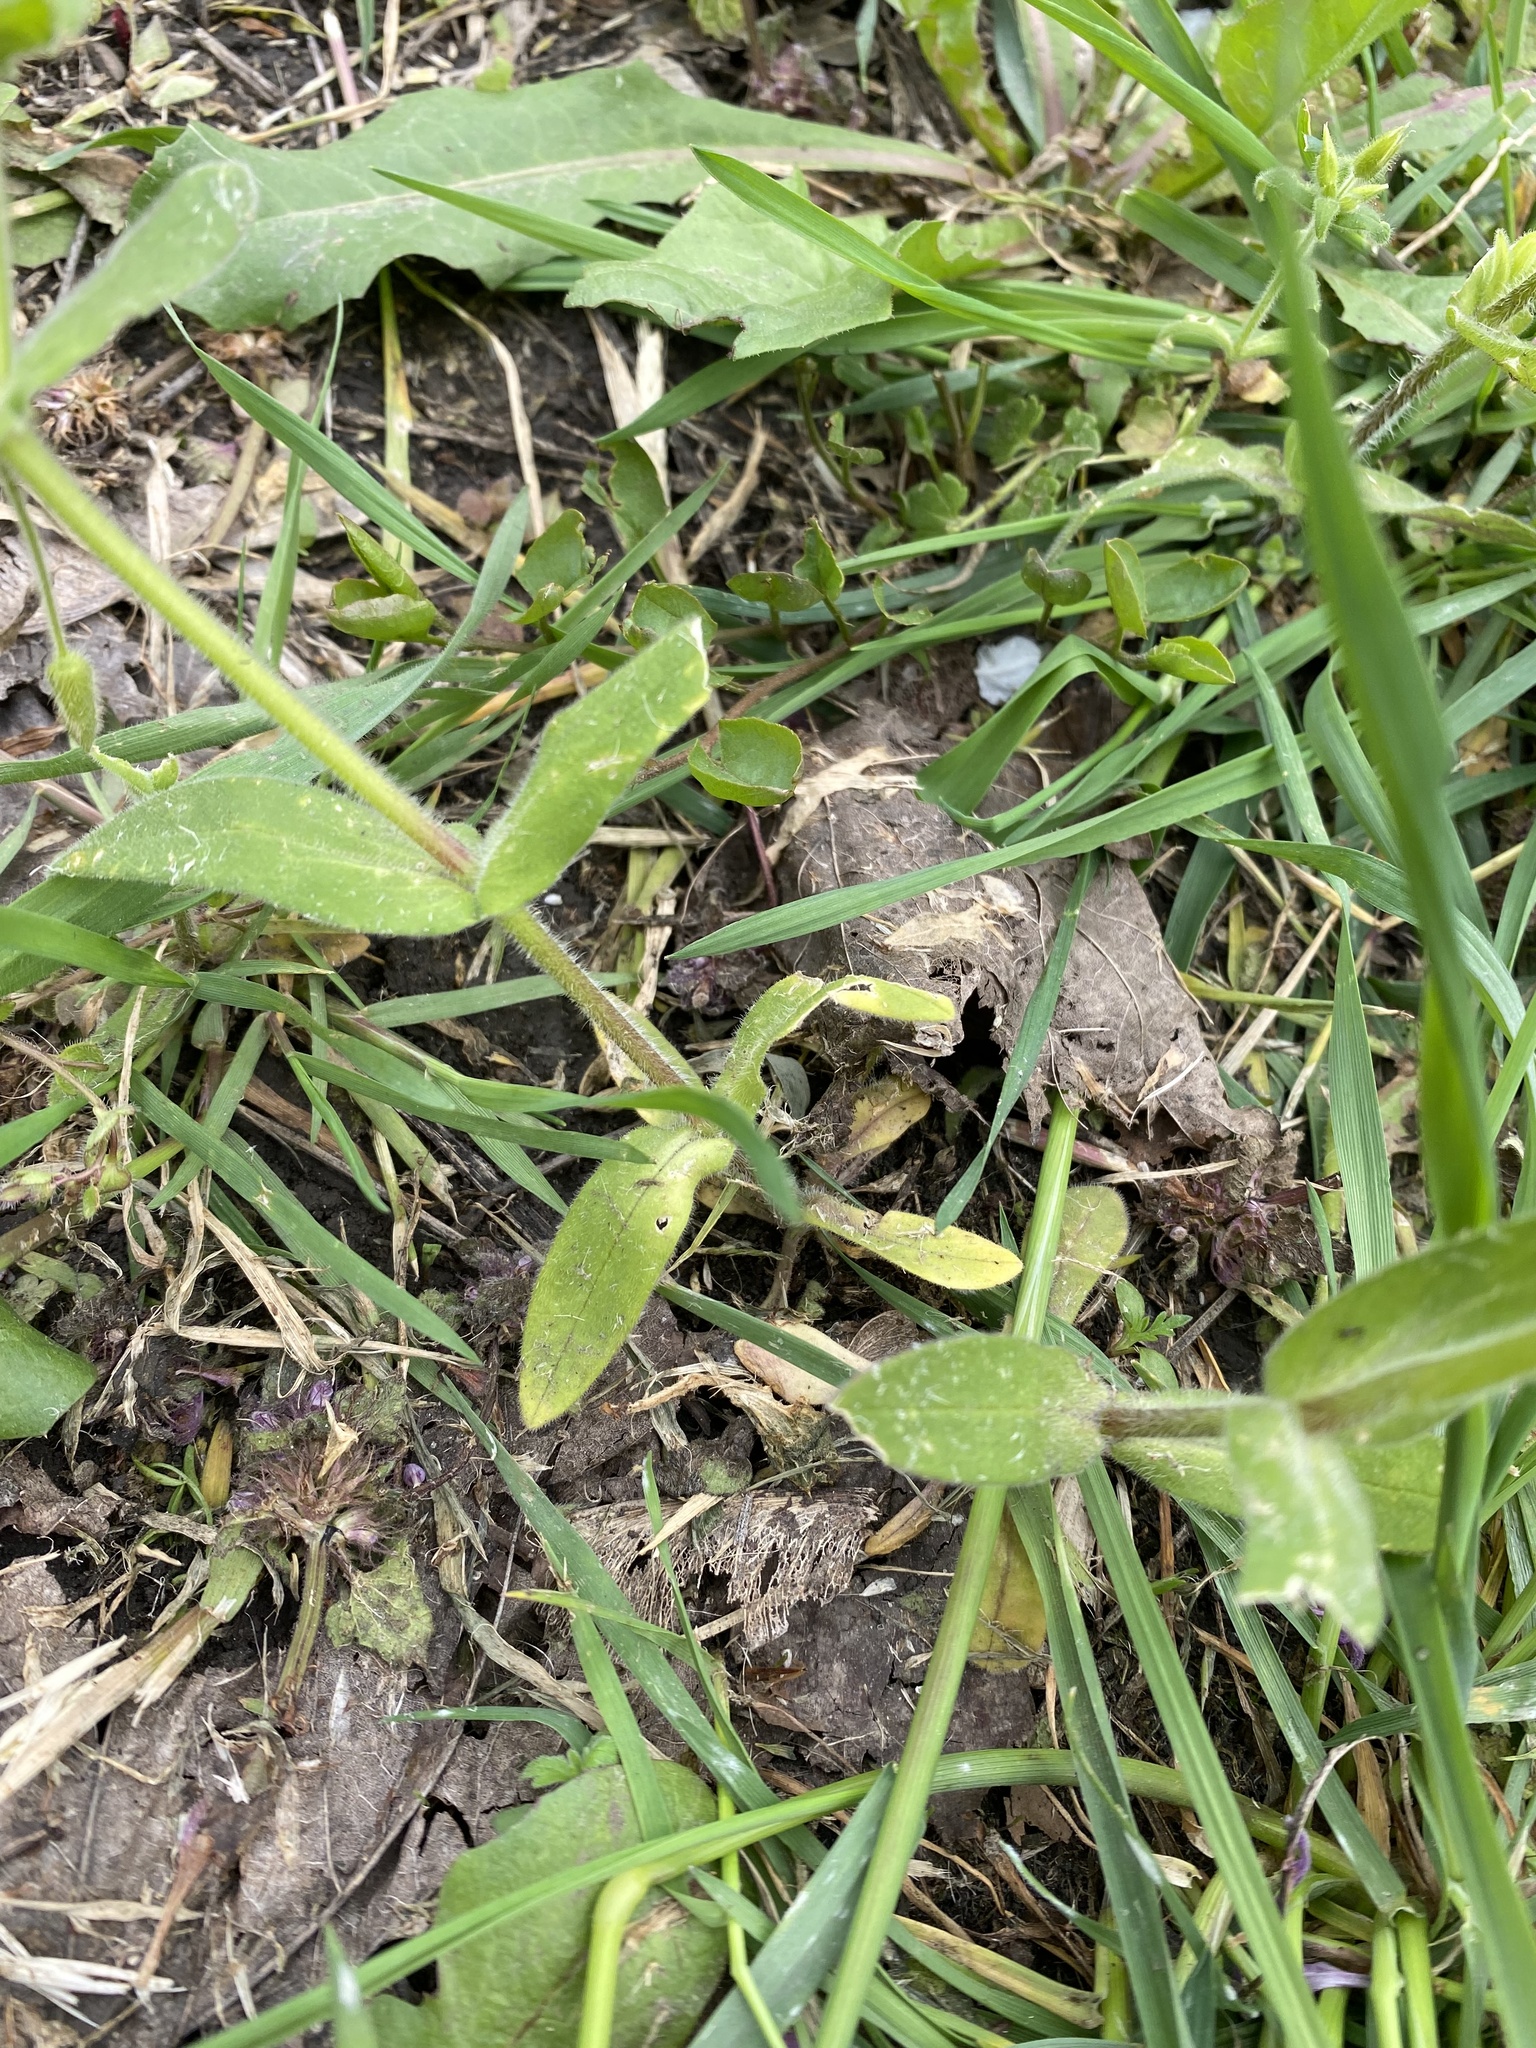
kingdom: Plantae
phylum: Tracheophyta
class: Magnoliopsida
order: Caryophyllales
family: Caryophyllaceae
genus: Cerastium
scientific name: Cerastium nemorale
